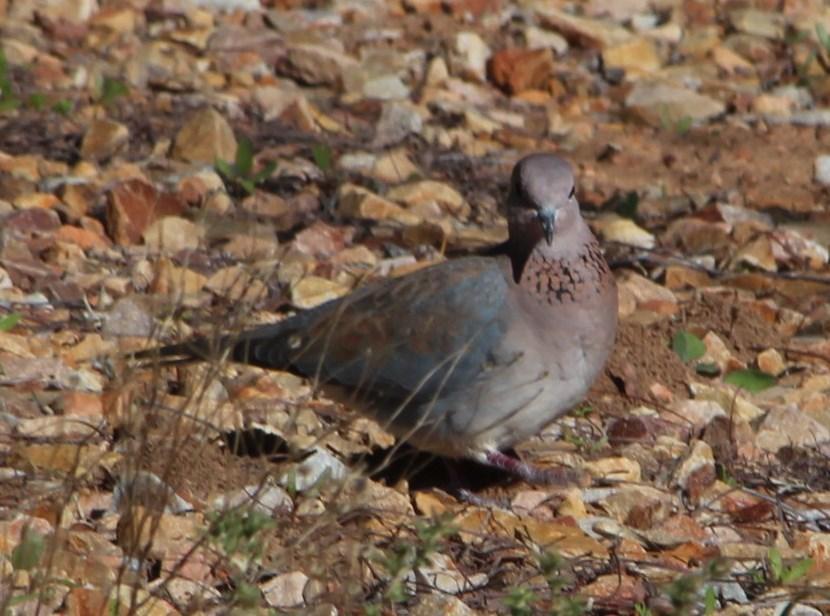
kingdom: Animalia
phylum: Chordata
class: Aves
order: Columbiformes
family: Columbidae
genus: Spilopelia
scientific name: Spilopelia senegalensis
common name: Laughing dove
